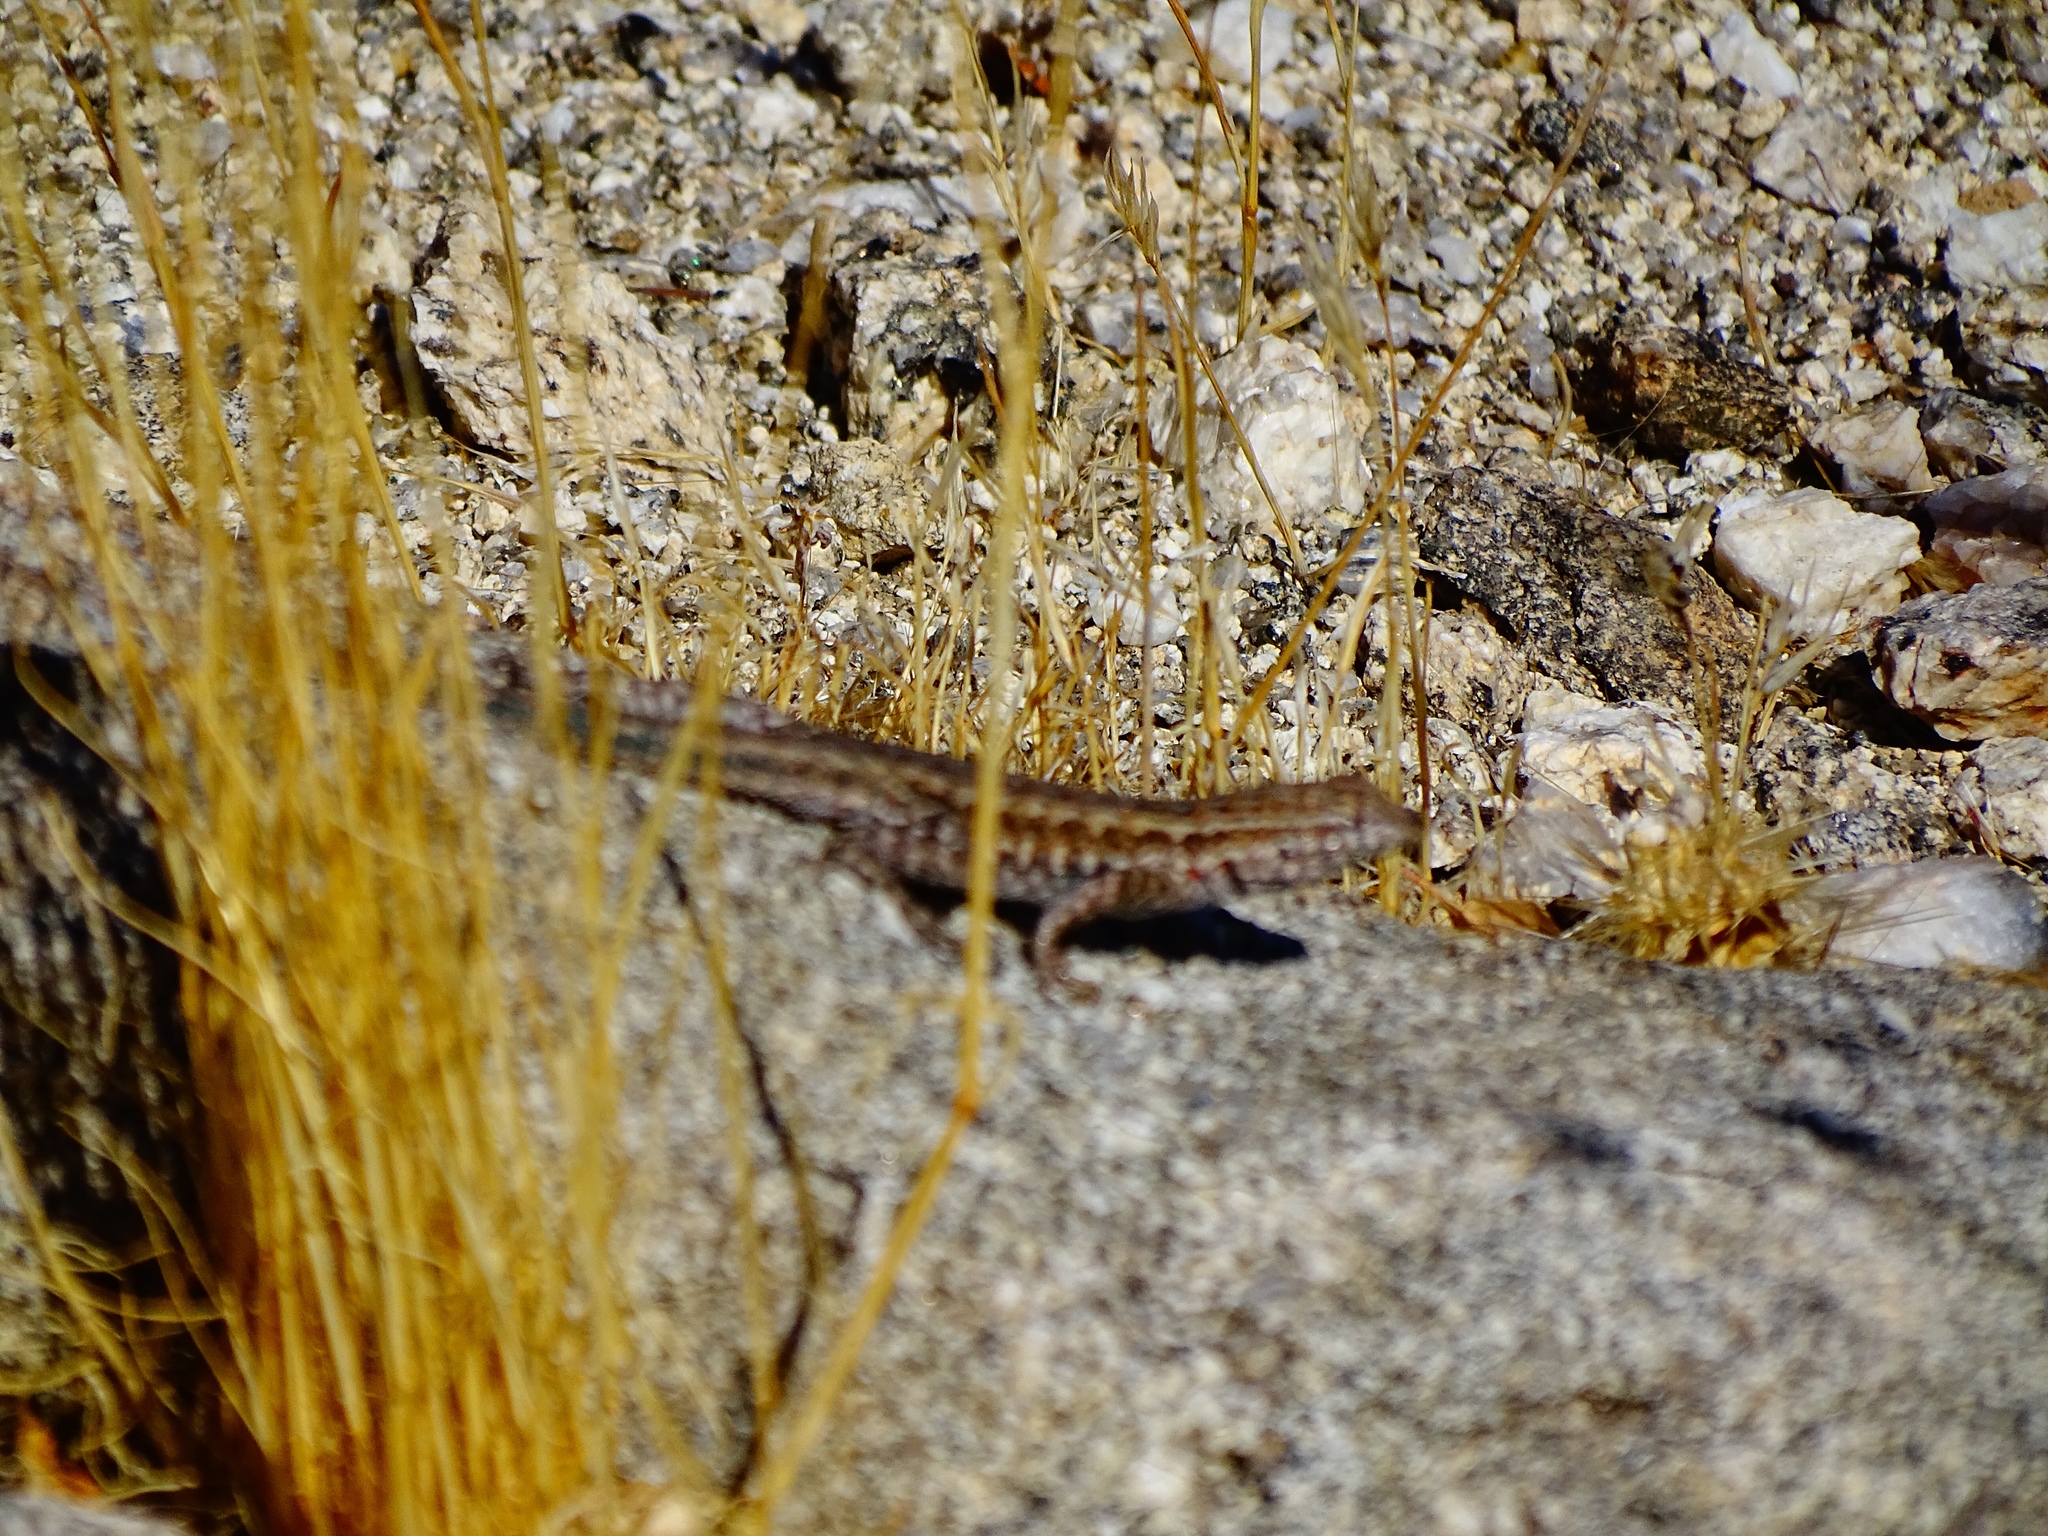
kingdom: Animalia
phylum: Chordata
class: Squamata
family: Phrynosomatidae
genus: Uta
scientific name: Uta stansburiana
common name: Side-blotched lizard
